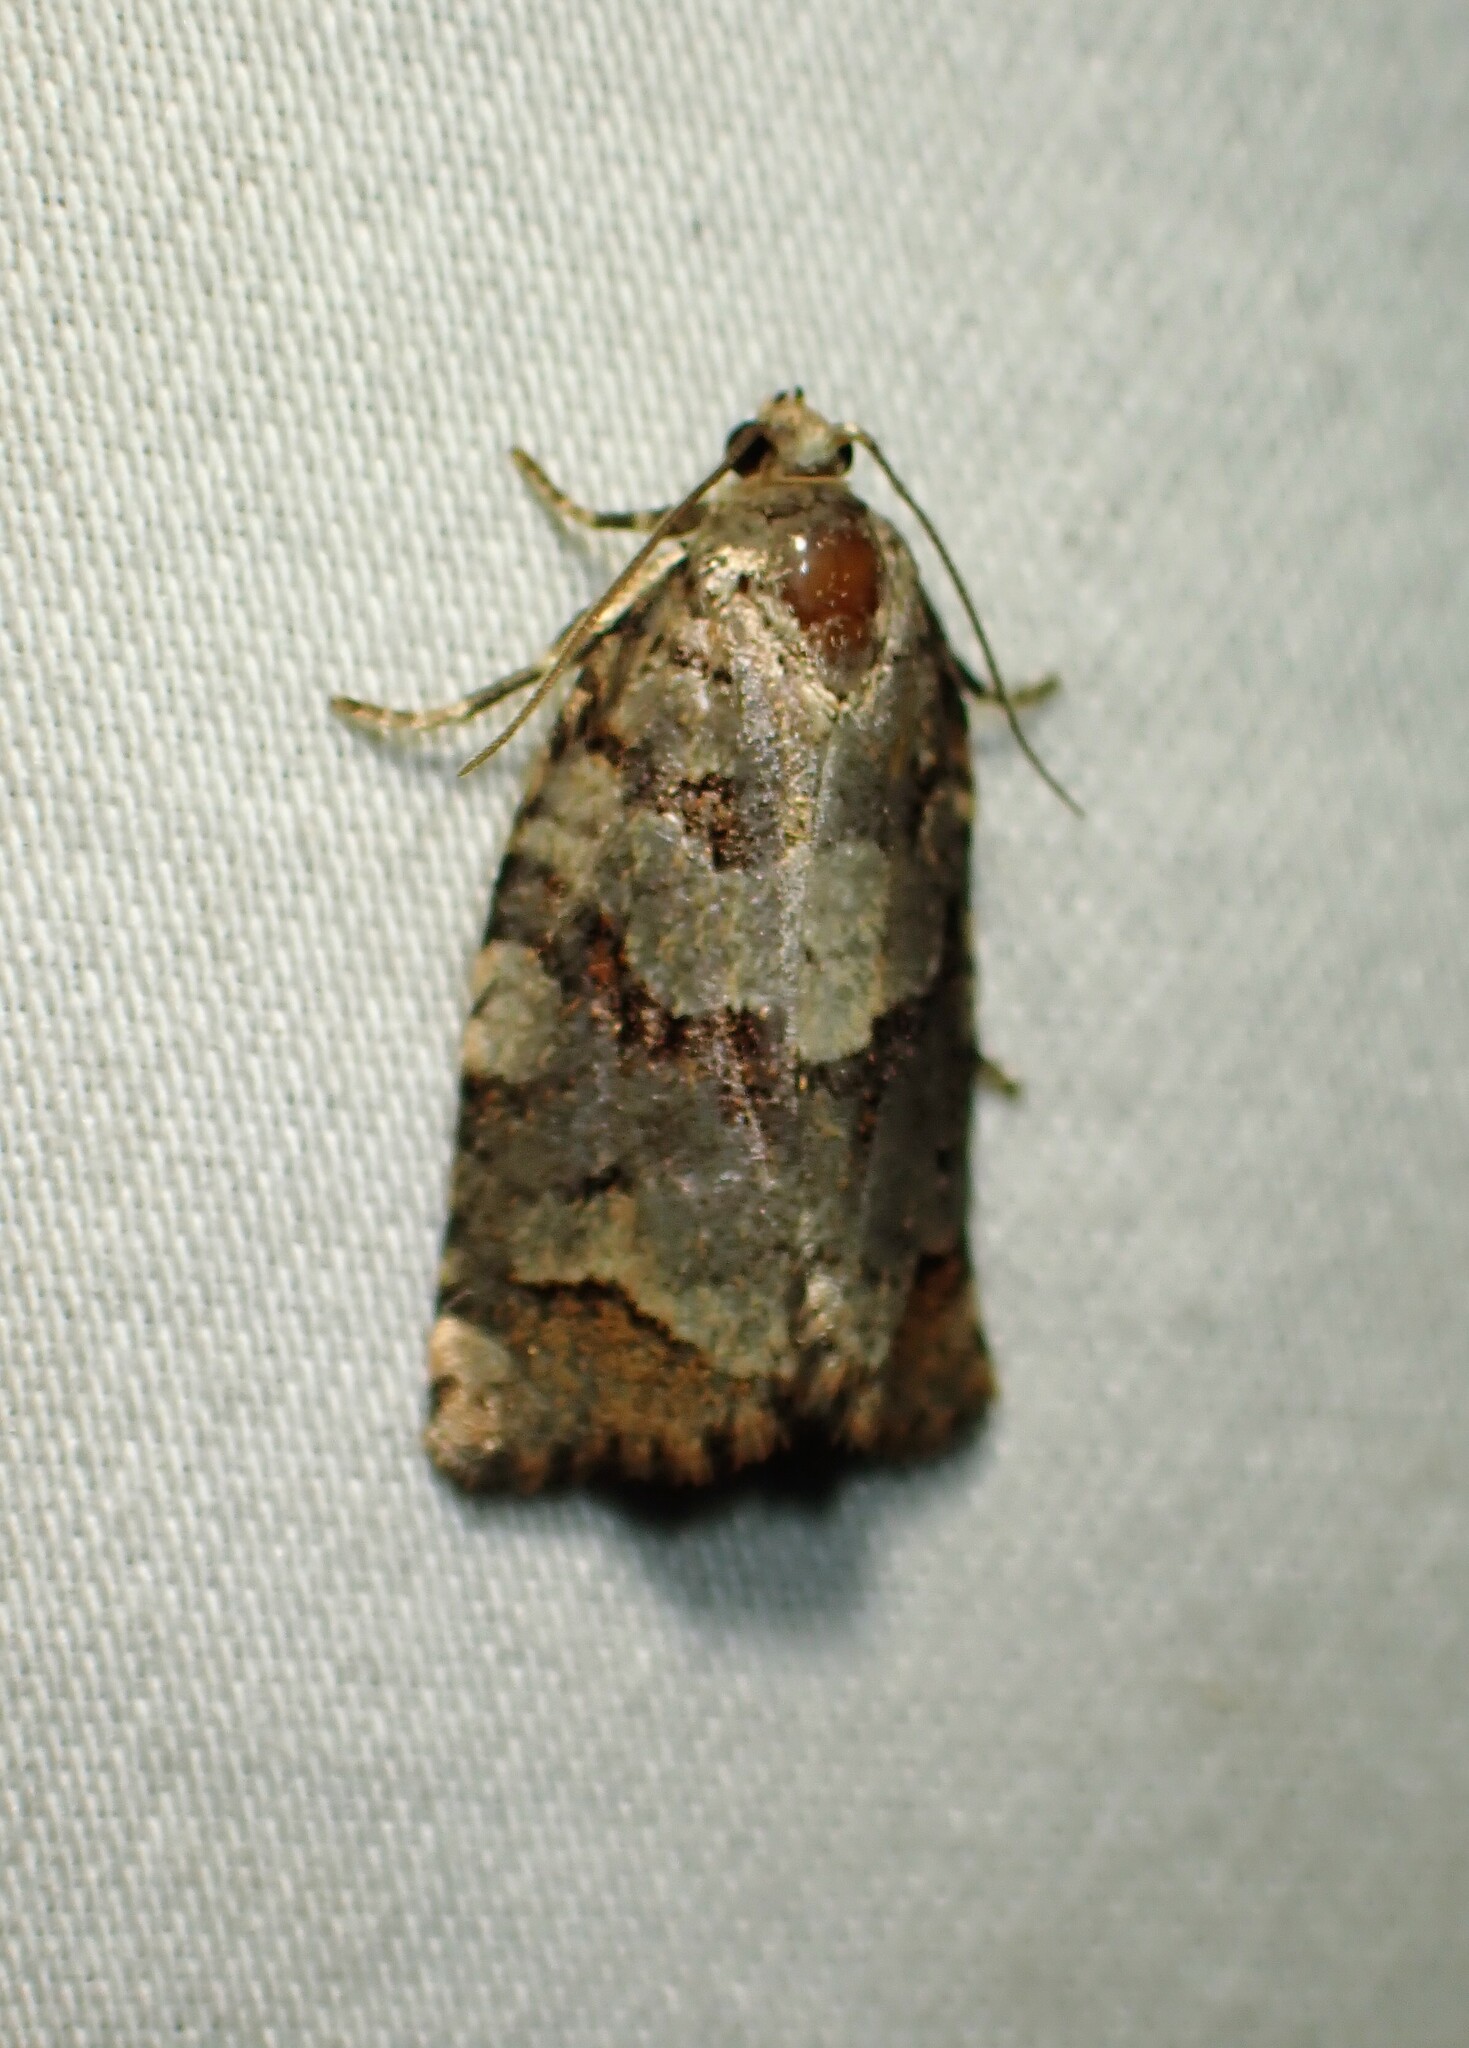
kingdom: Animalia
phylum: Arthropoda
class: Insecta
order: Lepidoptera
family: Tortricidae
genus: Archips
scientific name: Archips alberta
